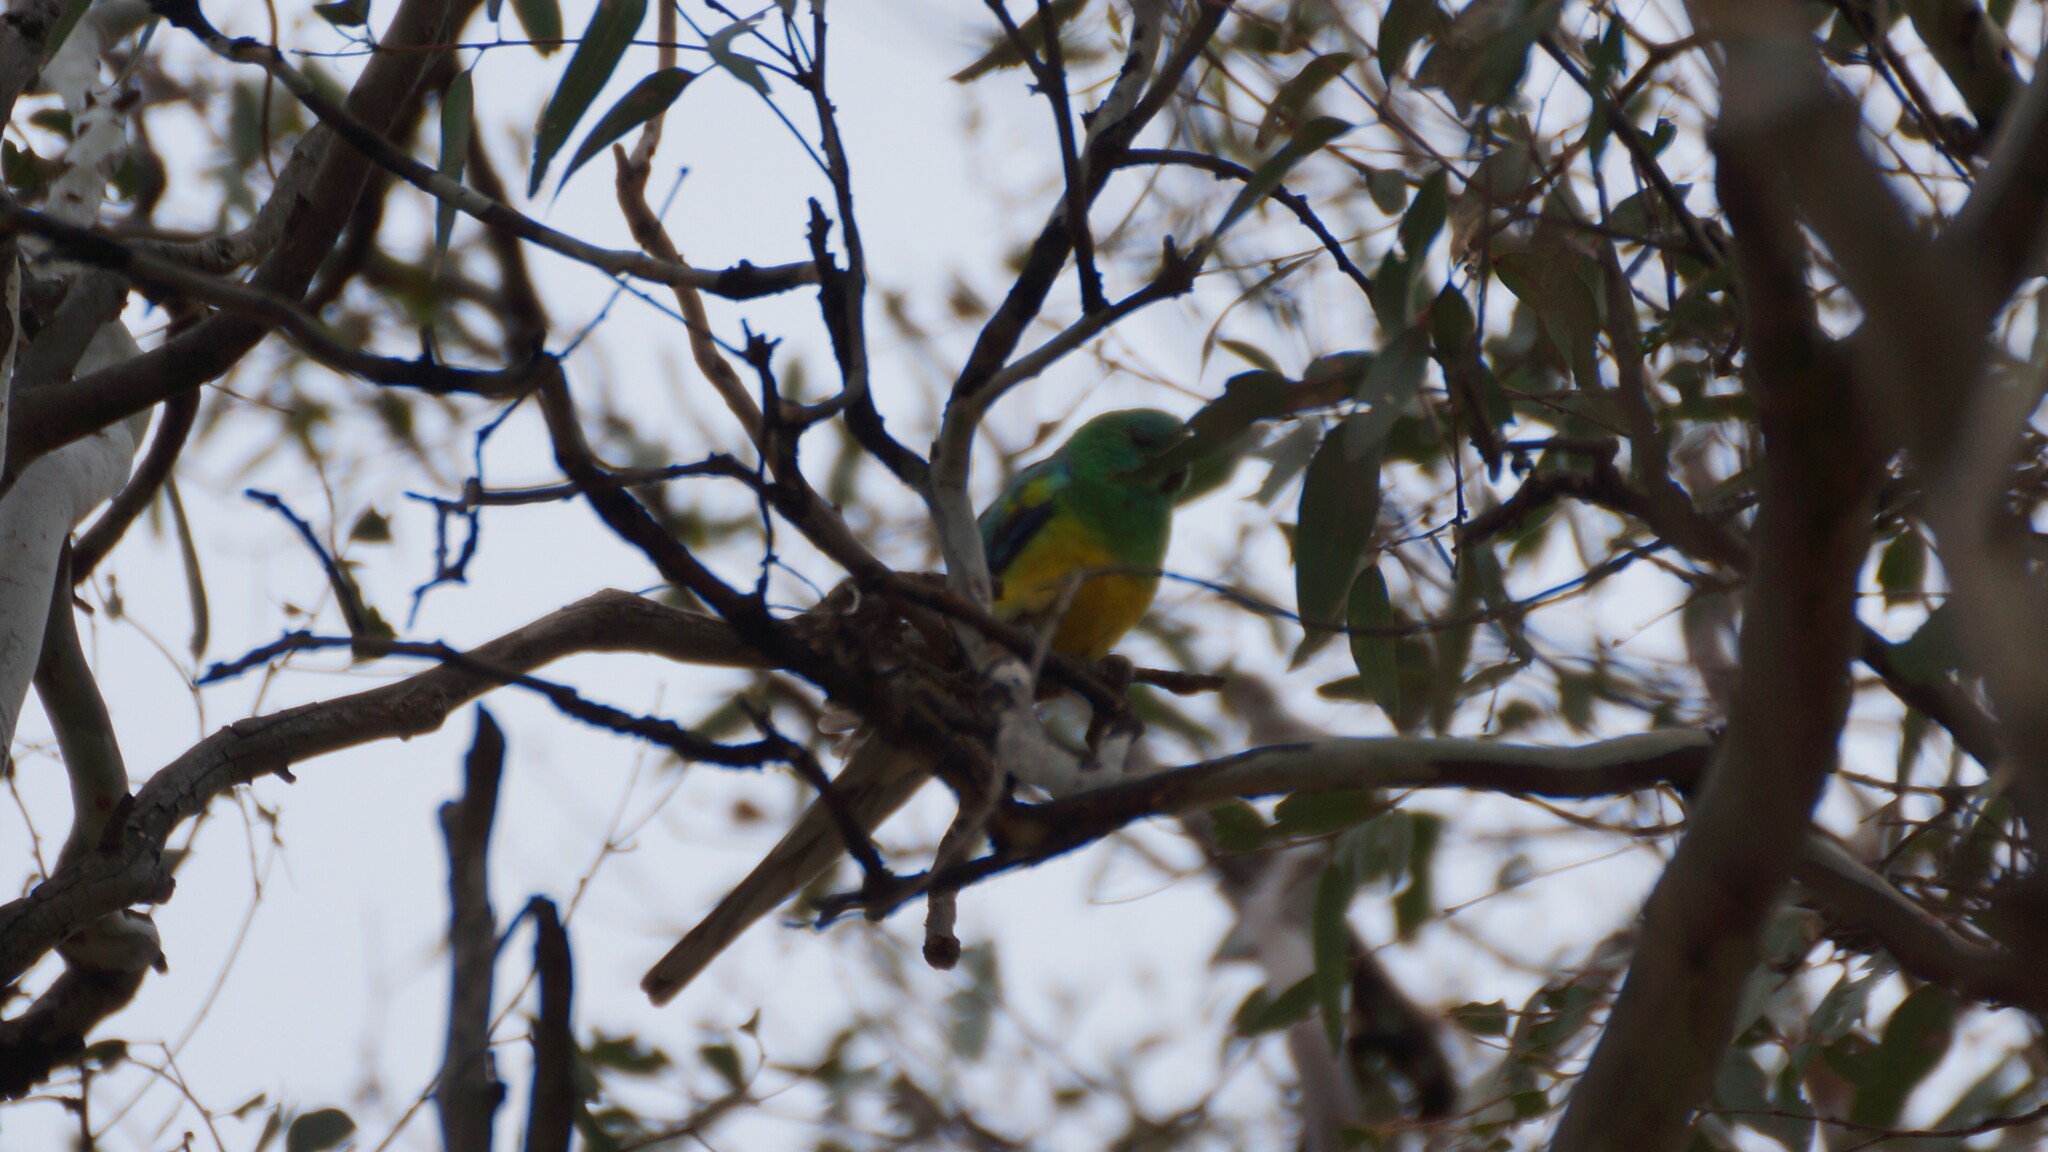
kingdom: Animalia
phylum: Chordata
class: Aves
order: Psittaciformes
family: Psittacidae
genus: Psephotus
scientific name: Psephotus haematonotus
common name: Red-rumped parrot
